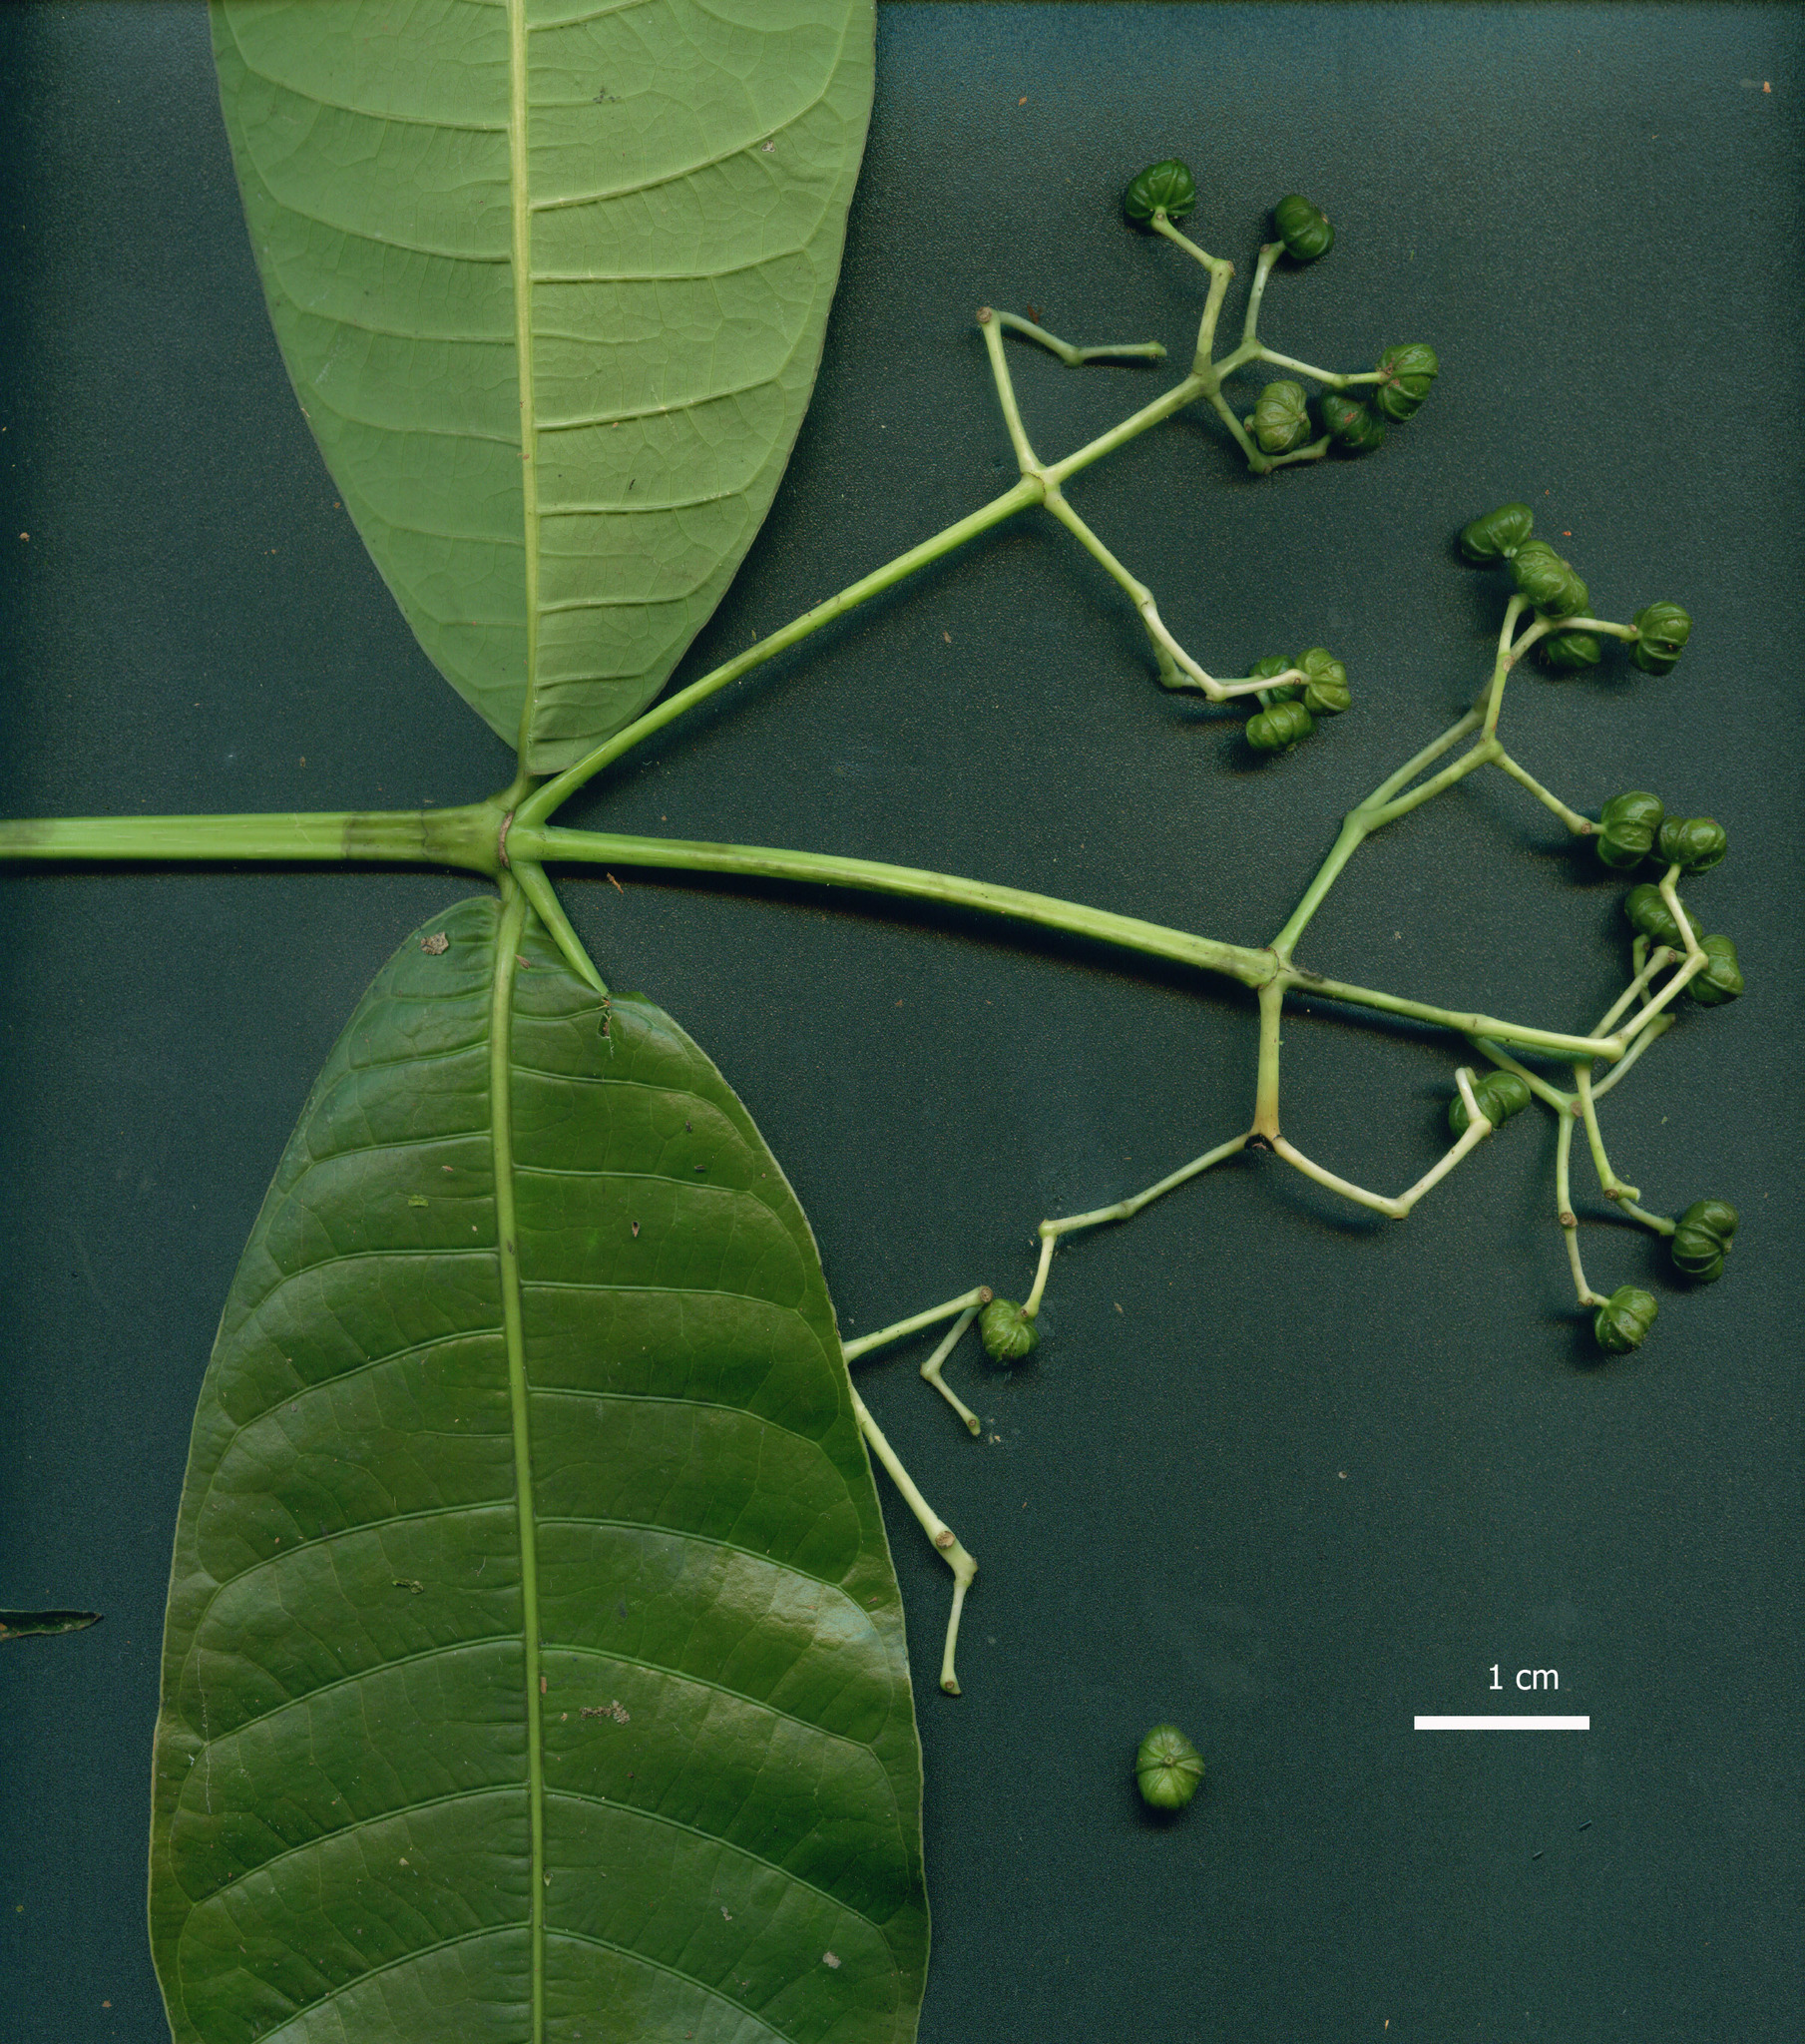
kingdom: Plantae
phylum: Tracheophyta
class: Magnoliopsida
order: Gentianales
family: Rubiaceae
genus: Faramea
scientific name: Faramea tamberlikiana
